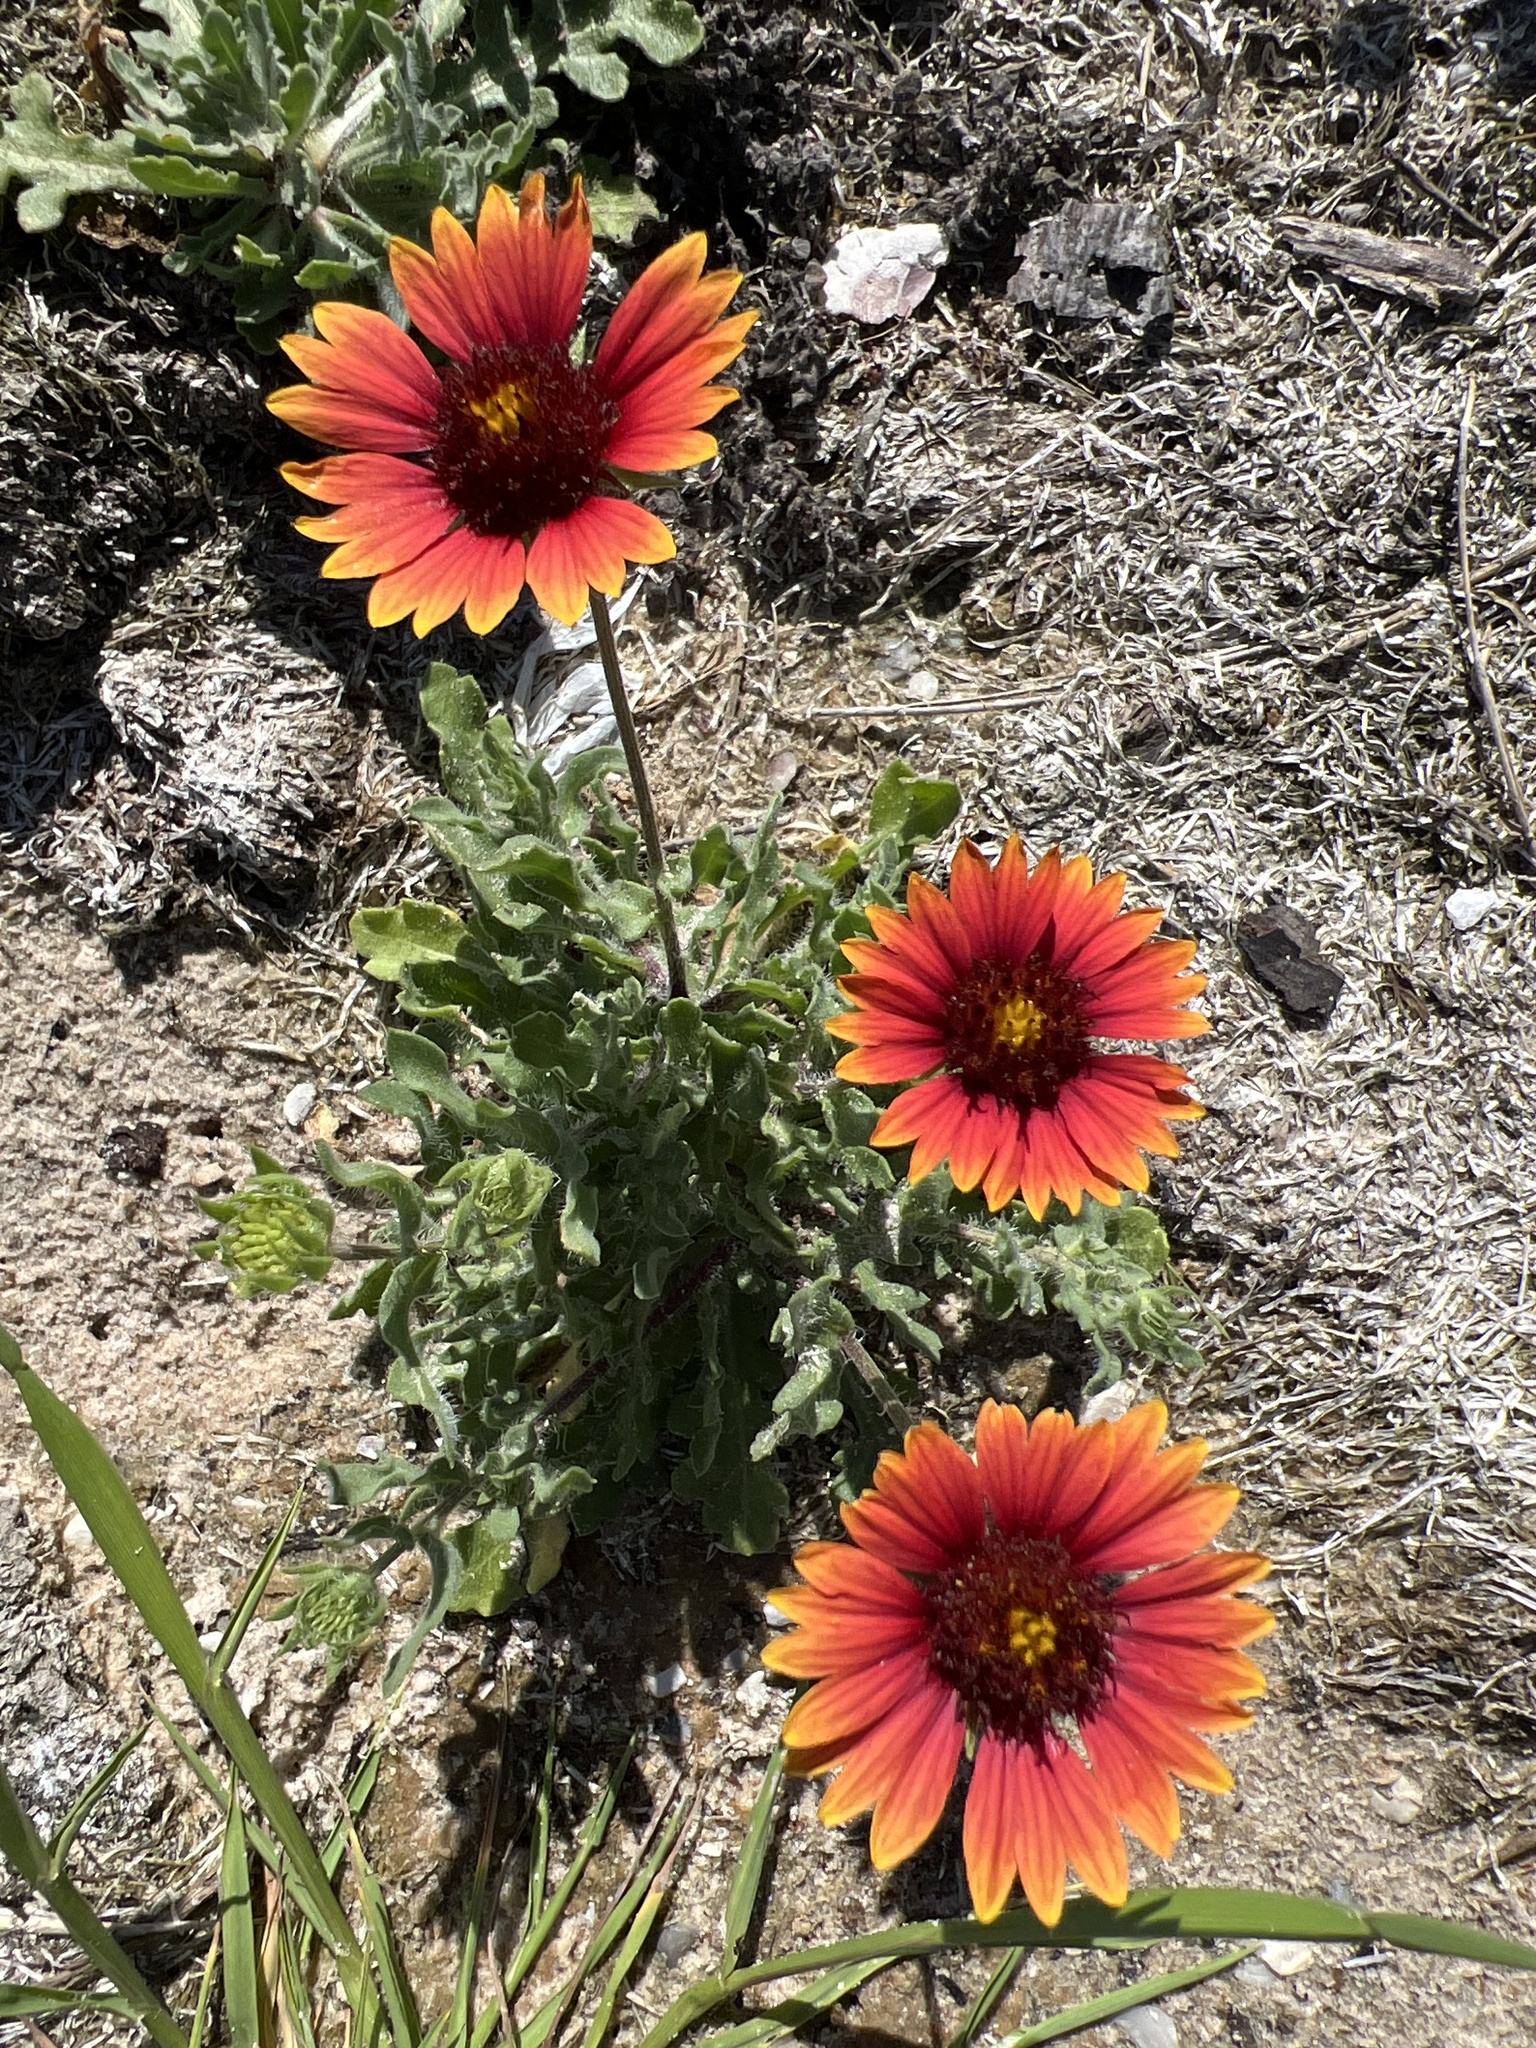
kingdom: Plantae
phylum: Tracheophyta
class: Magnoliopsida
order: Asterales
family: Asteraceae
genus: Gaillardia
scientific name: Gaillardia pulchella
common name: Firewheel
